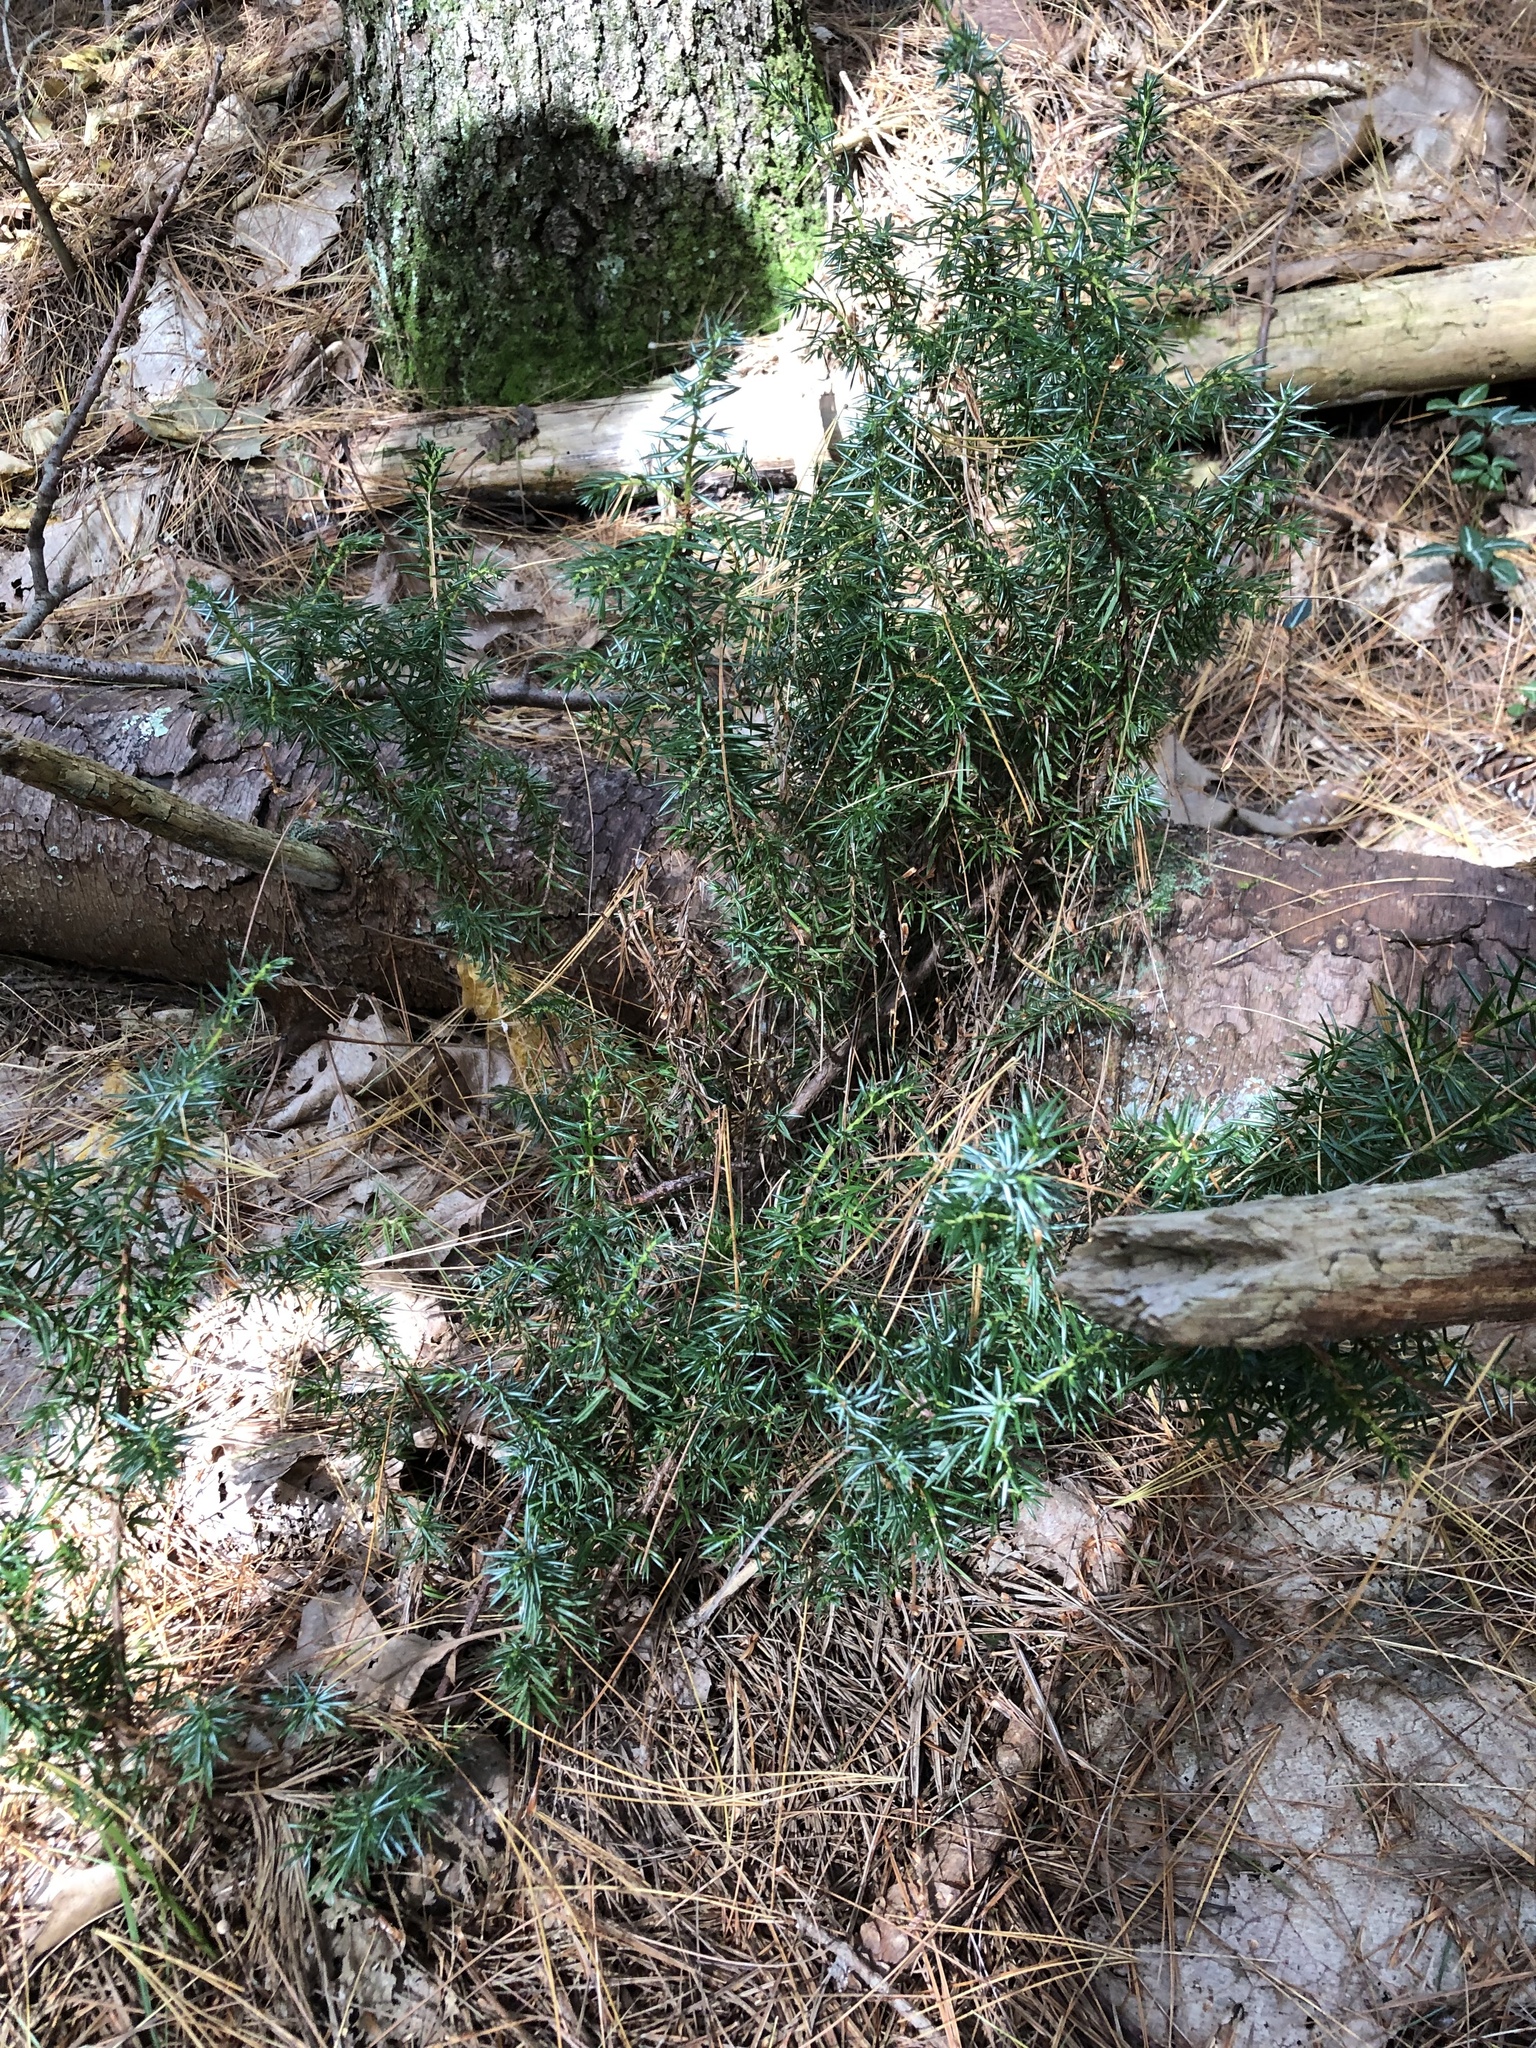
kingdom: Plantae
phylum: Tracheophyta
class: Pinopsida
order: Pinales
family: Cupressaceae
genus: Juniperus
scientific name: Juniperus communis
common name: Common juniper
